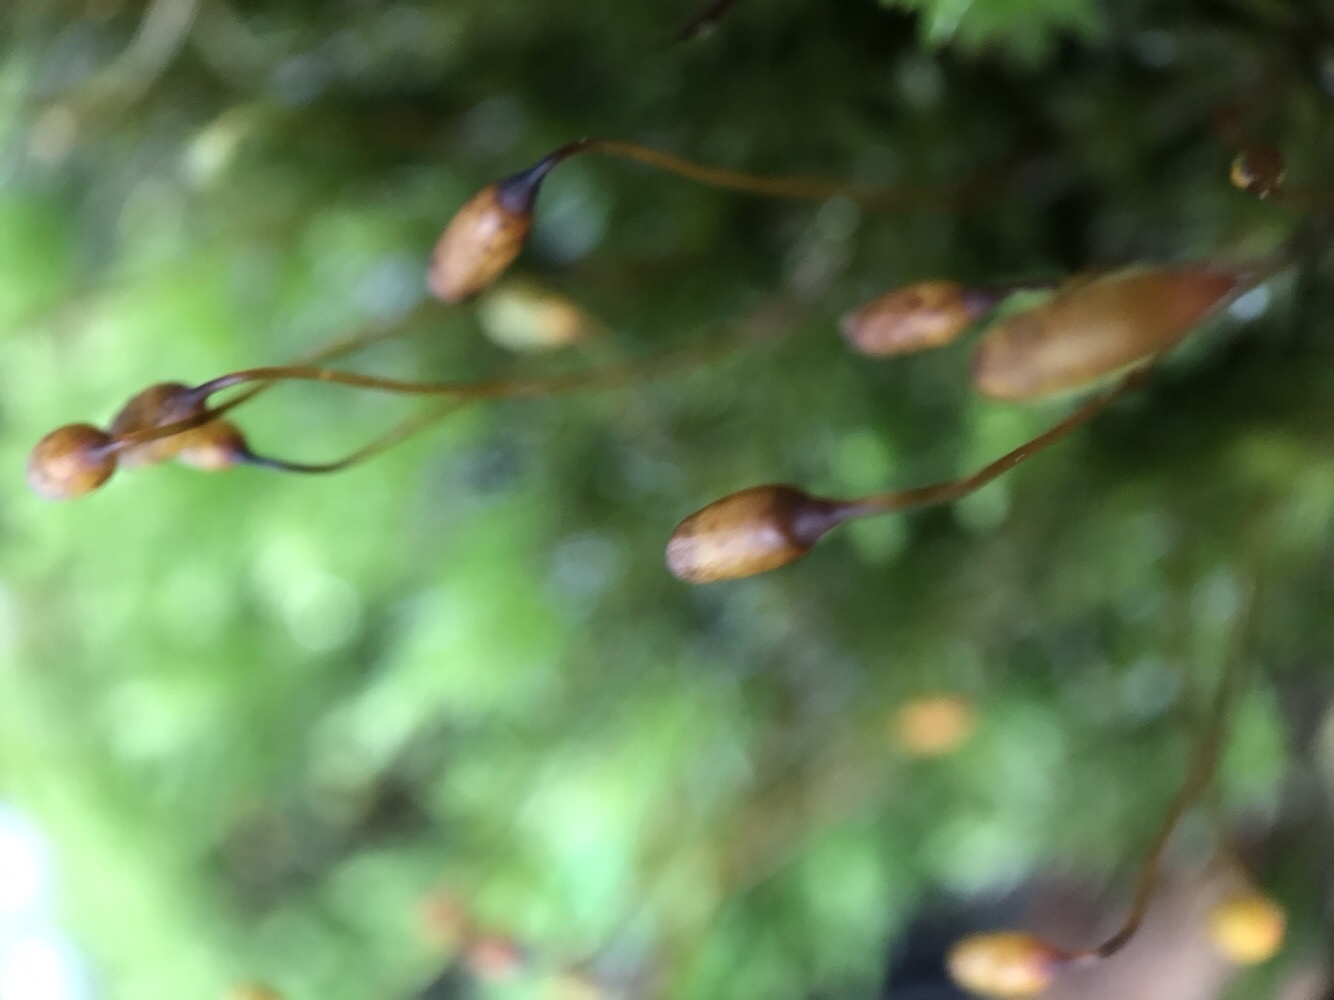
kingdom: Plantae
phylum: Bryophyta
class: Bryopsida
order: Bryales
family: Mniaceae
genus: Mnium
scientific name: Mnium hornum
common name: Swan's-neck leafy moss
